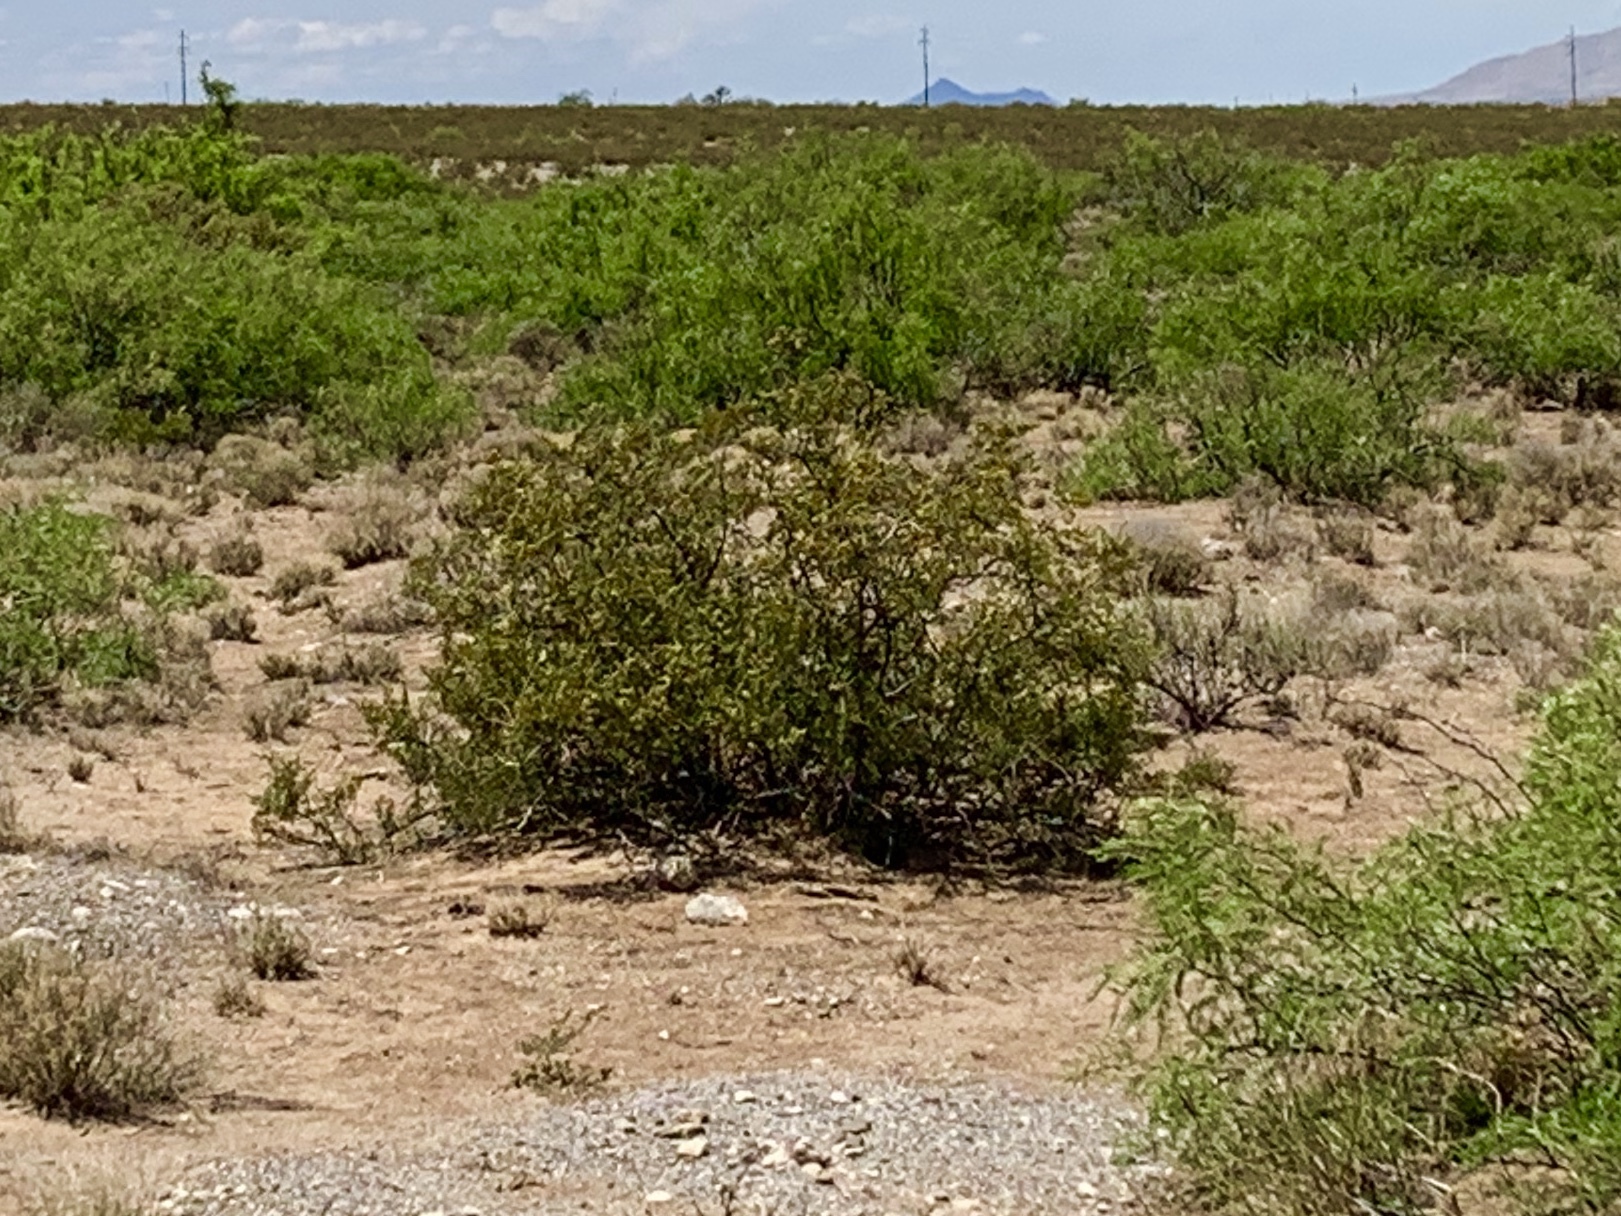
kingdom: Plantae
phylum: Tracheophyta
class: Magnoliopsida
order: Zygophyllales
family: Zygophyllaceae
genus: Larrea
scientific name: Larrea tridentata
